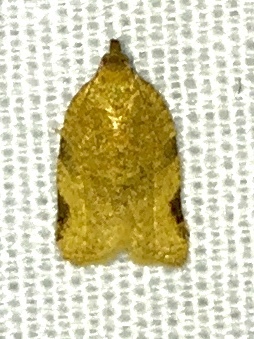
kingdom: Animalia
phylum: Arthropoda
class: Insecta
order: Lepidoptera
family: Tortricidae
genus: Clepsis
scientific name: Clepsis virescana
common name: Greenish apple moth
